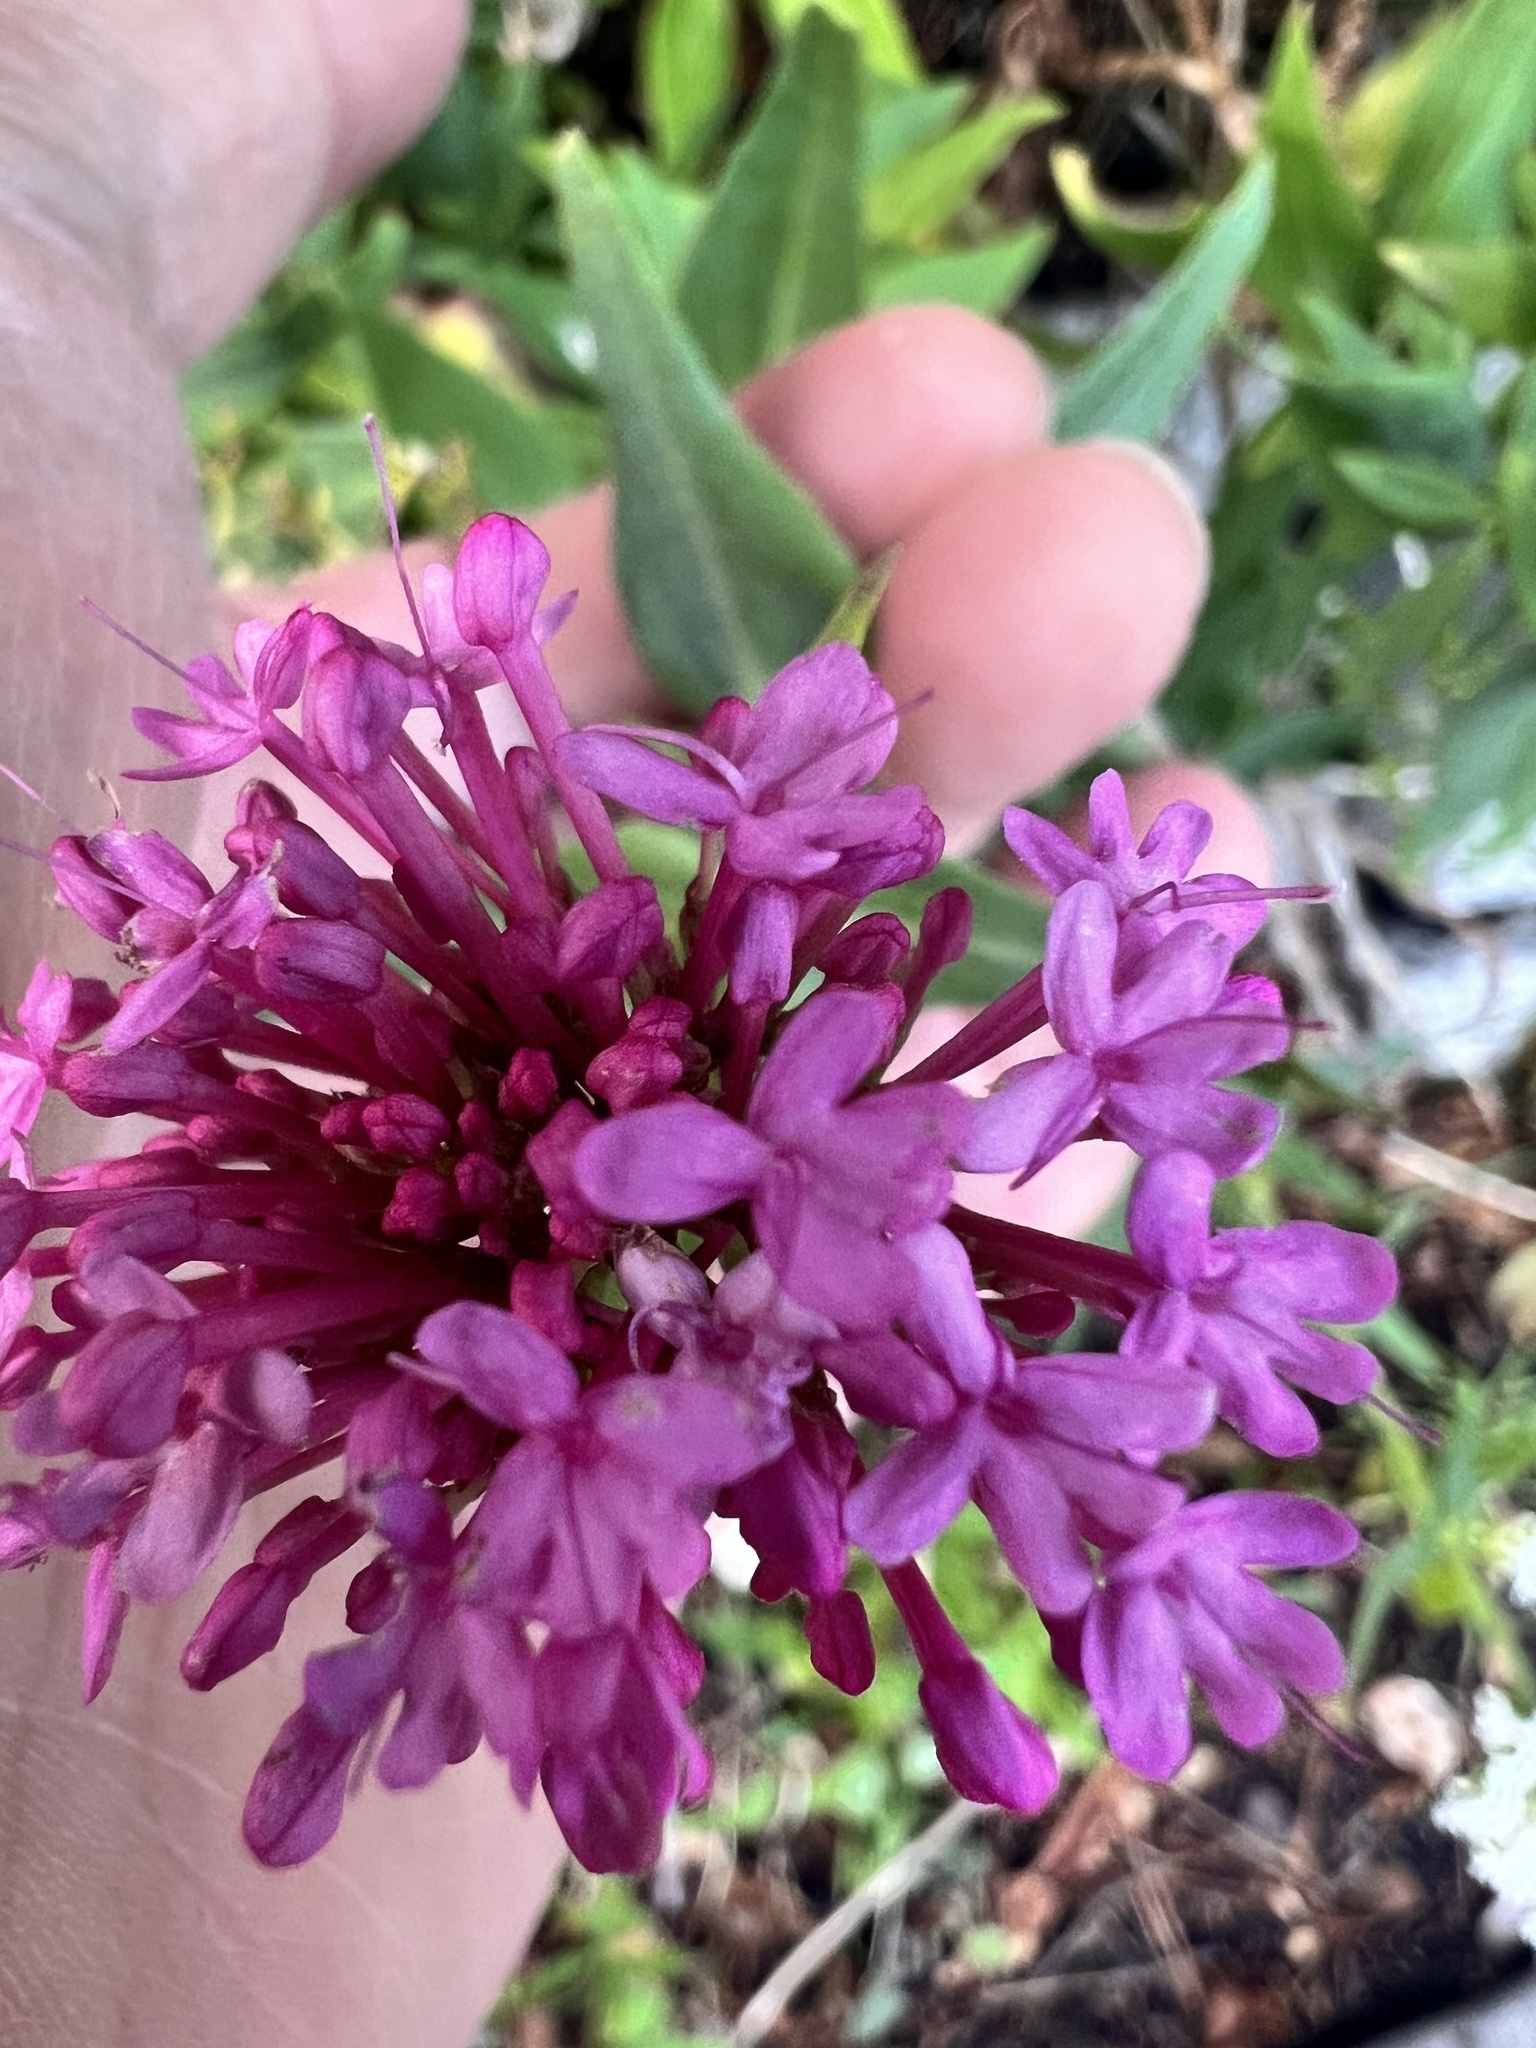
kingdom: Plantae
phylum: Tracheophyta
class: Magnoliopsida
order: Dipsacales
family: Caprifoliaceae
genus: Centranthus
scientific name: Centranthus ruber
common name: Red valerian
